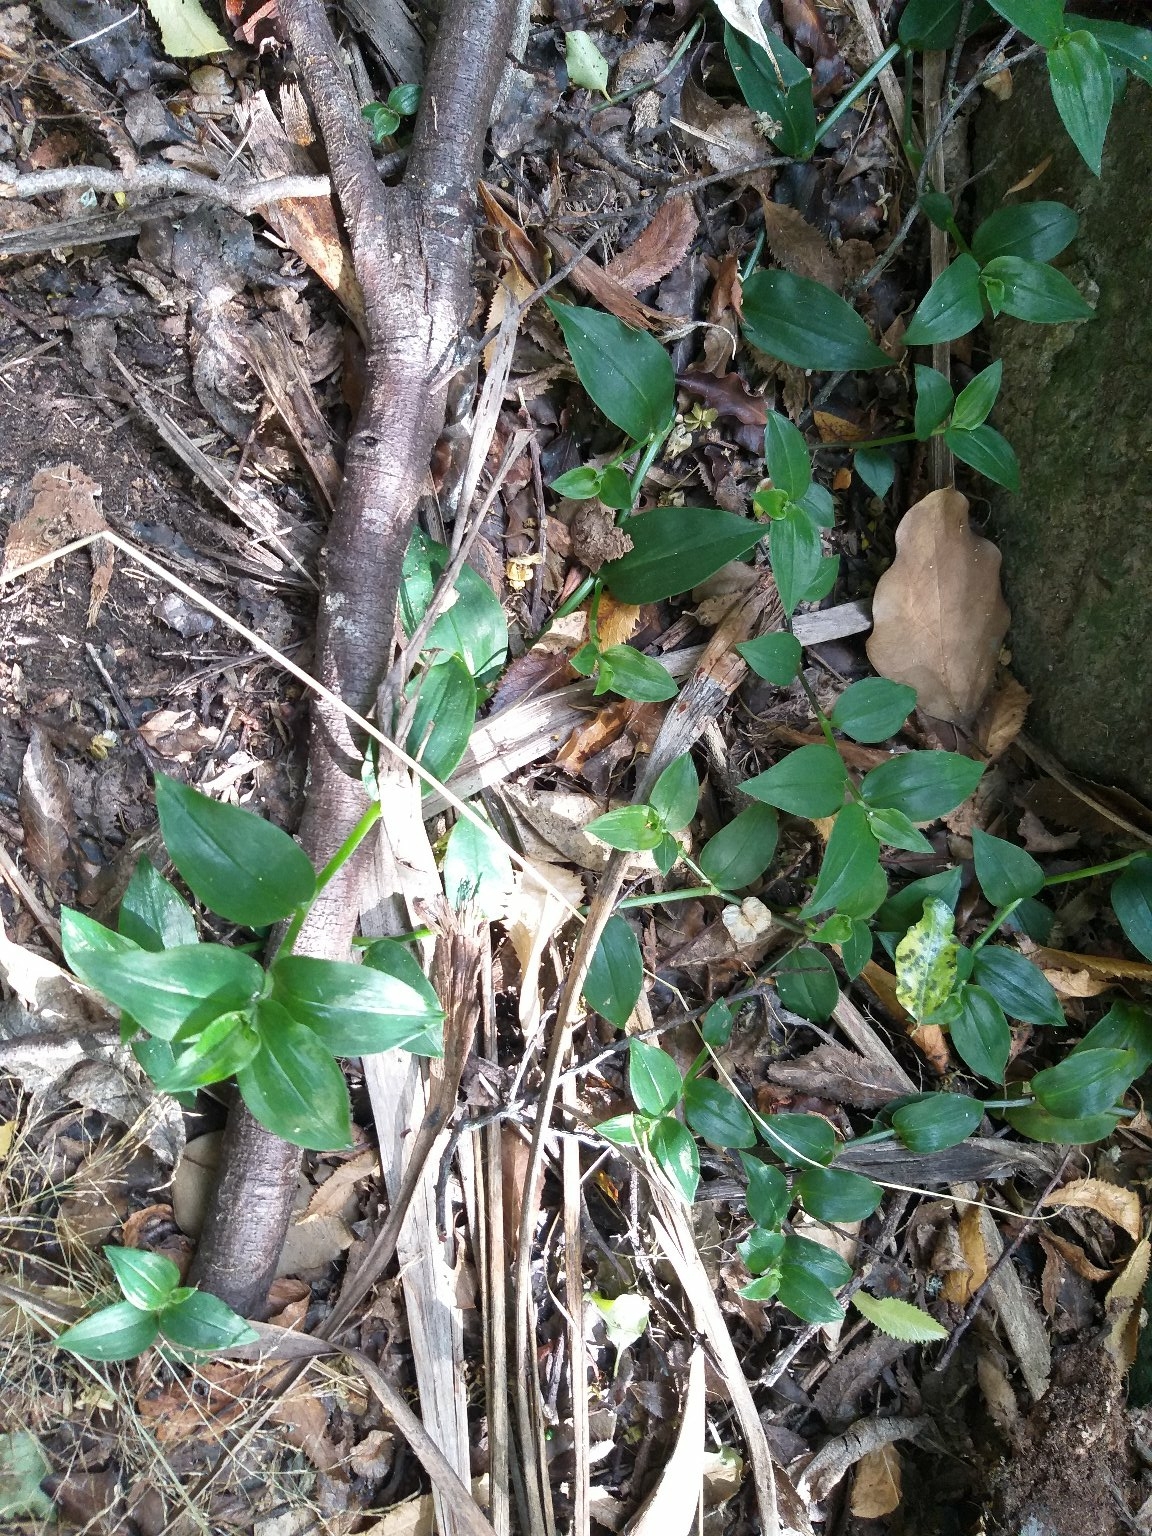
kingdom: Plantae
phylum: Tracheophyta
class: Liliopsida
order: Commelinales
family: Commelinaceae
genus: Tradescantia
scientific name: Tradescantia fluminensis
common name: Wandering-jew
